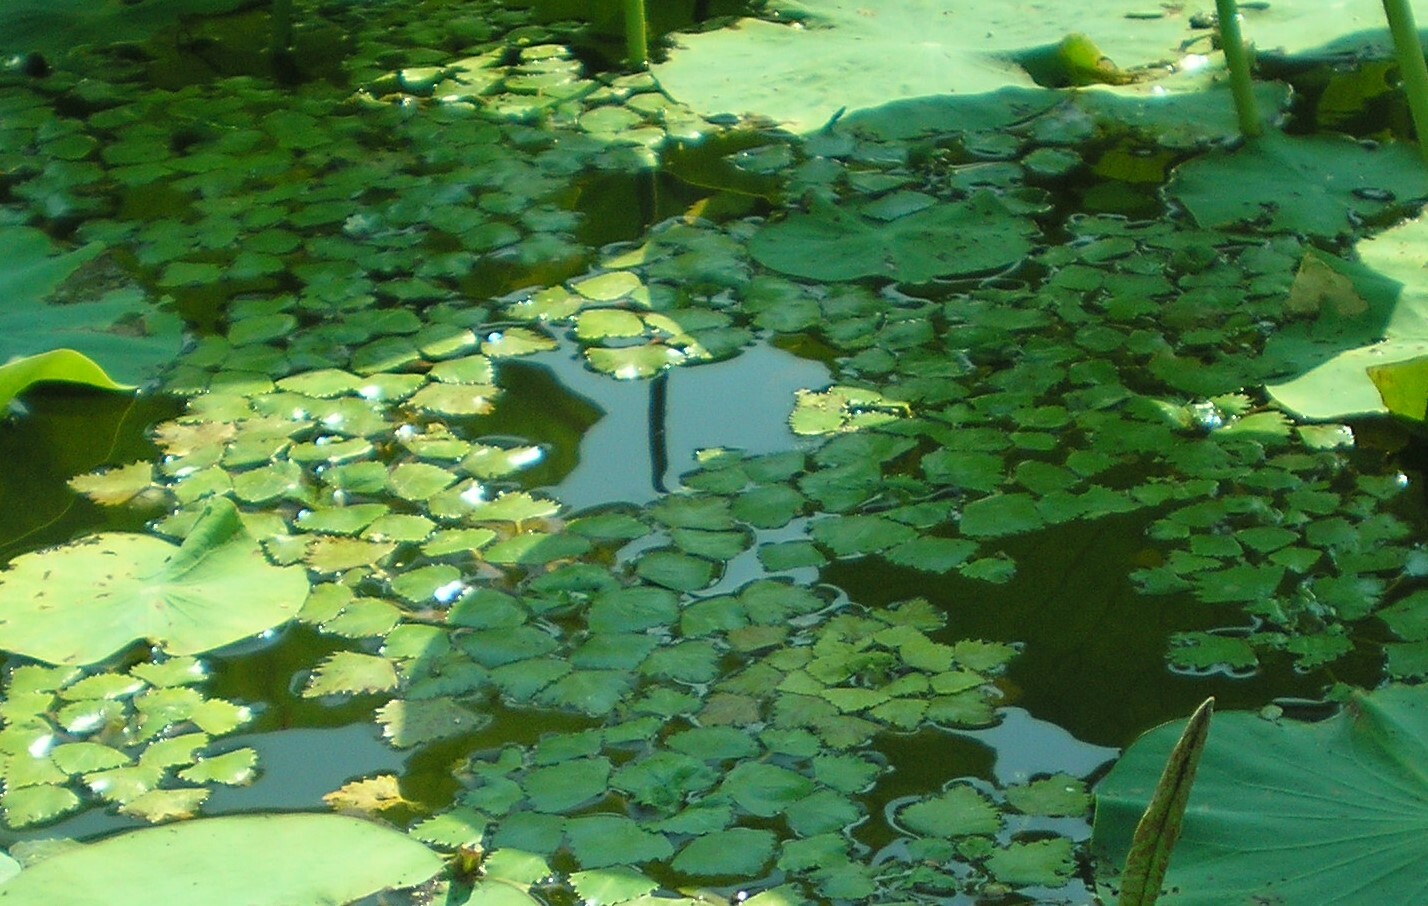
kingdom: Plantae
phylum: Tracheophyta
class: Magnoliopsida
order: Myrtales
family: Lythraceae
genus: Trapa
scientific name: Trapa natans
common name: Water chestnut
